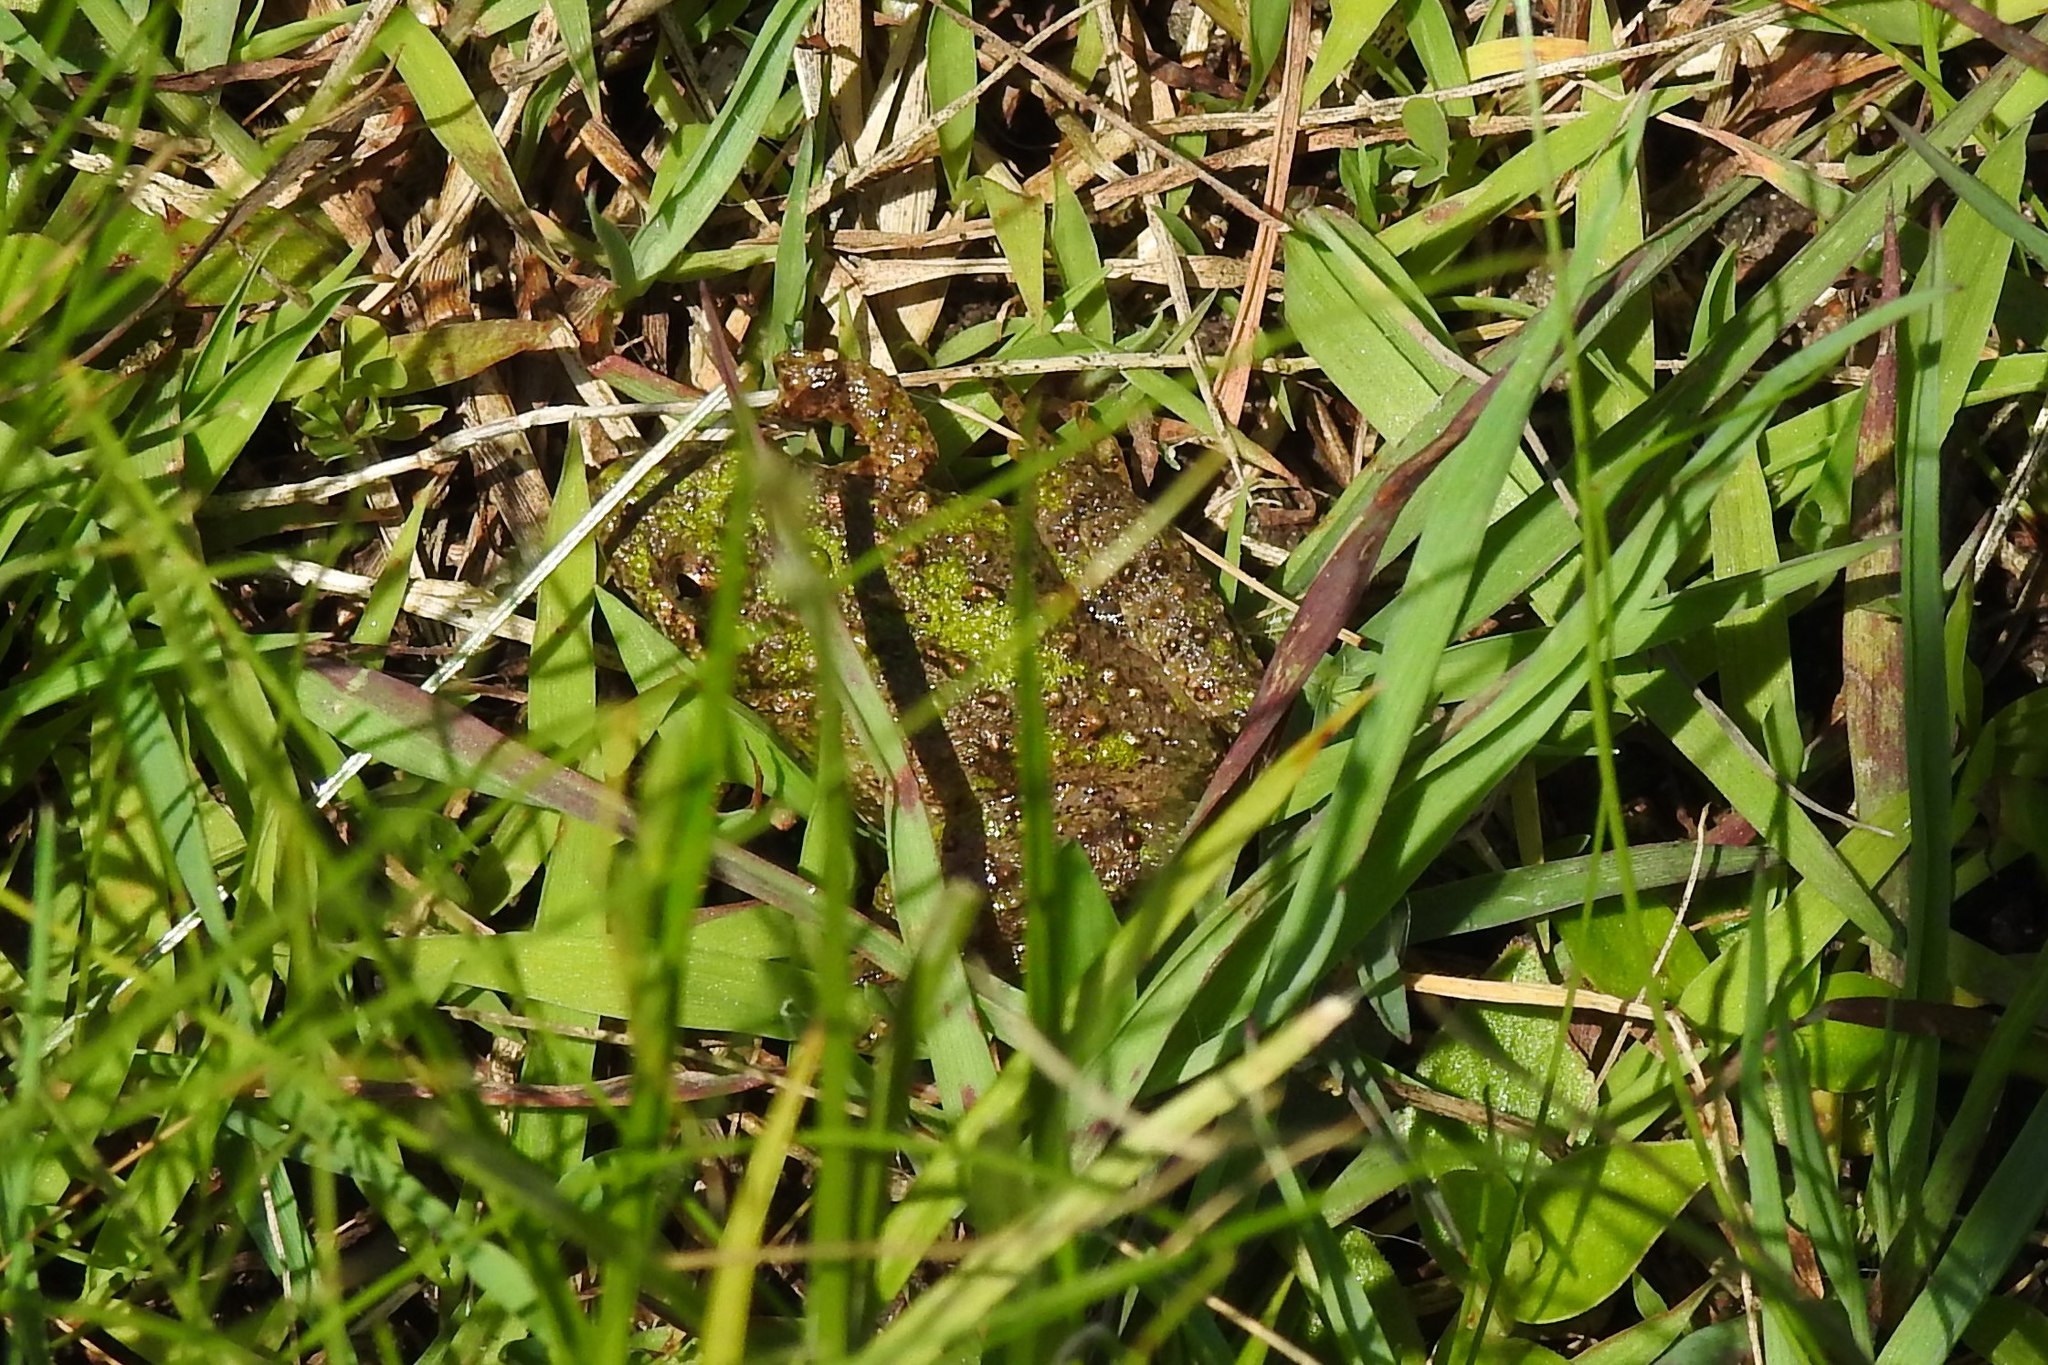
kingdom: Animalia
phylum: Chordata
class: Amphibia
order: Anura
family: Hylidae
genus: Acris
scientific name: Acris crepitans
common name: Northern cricket frog
